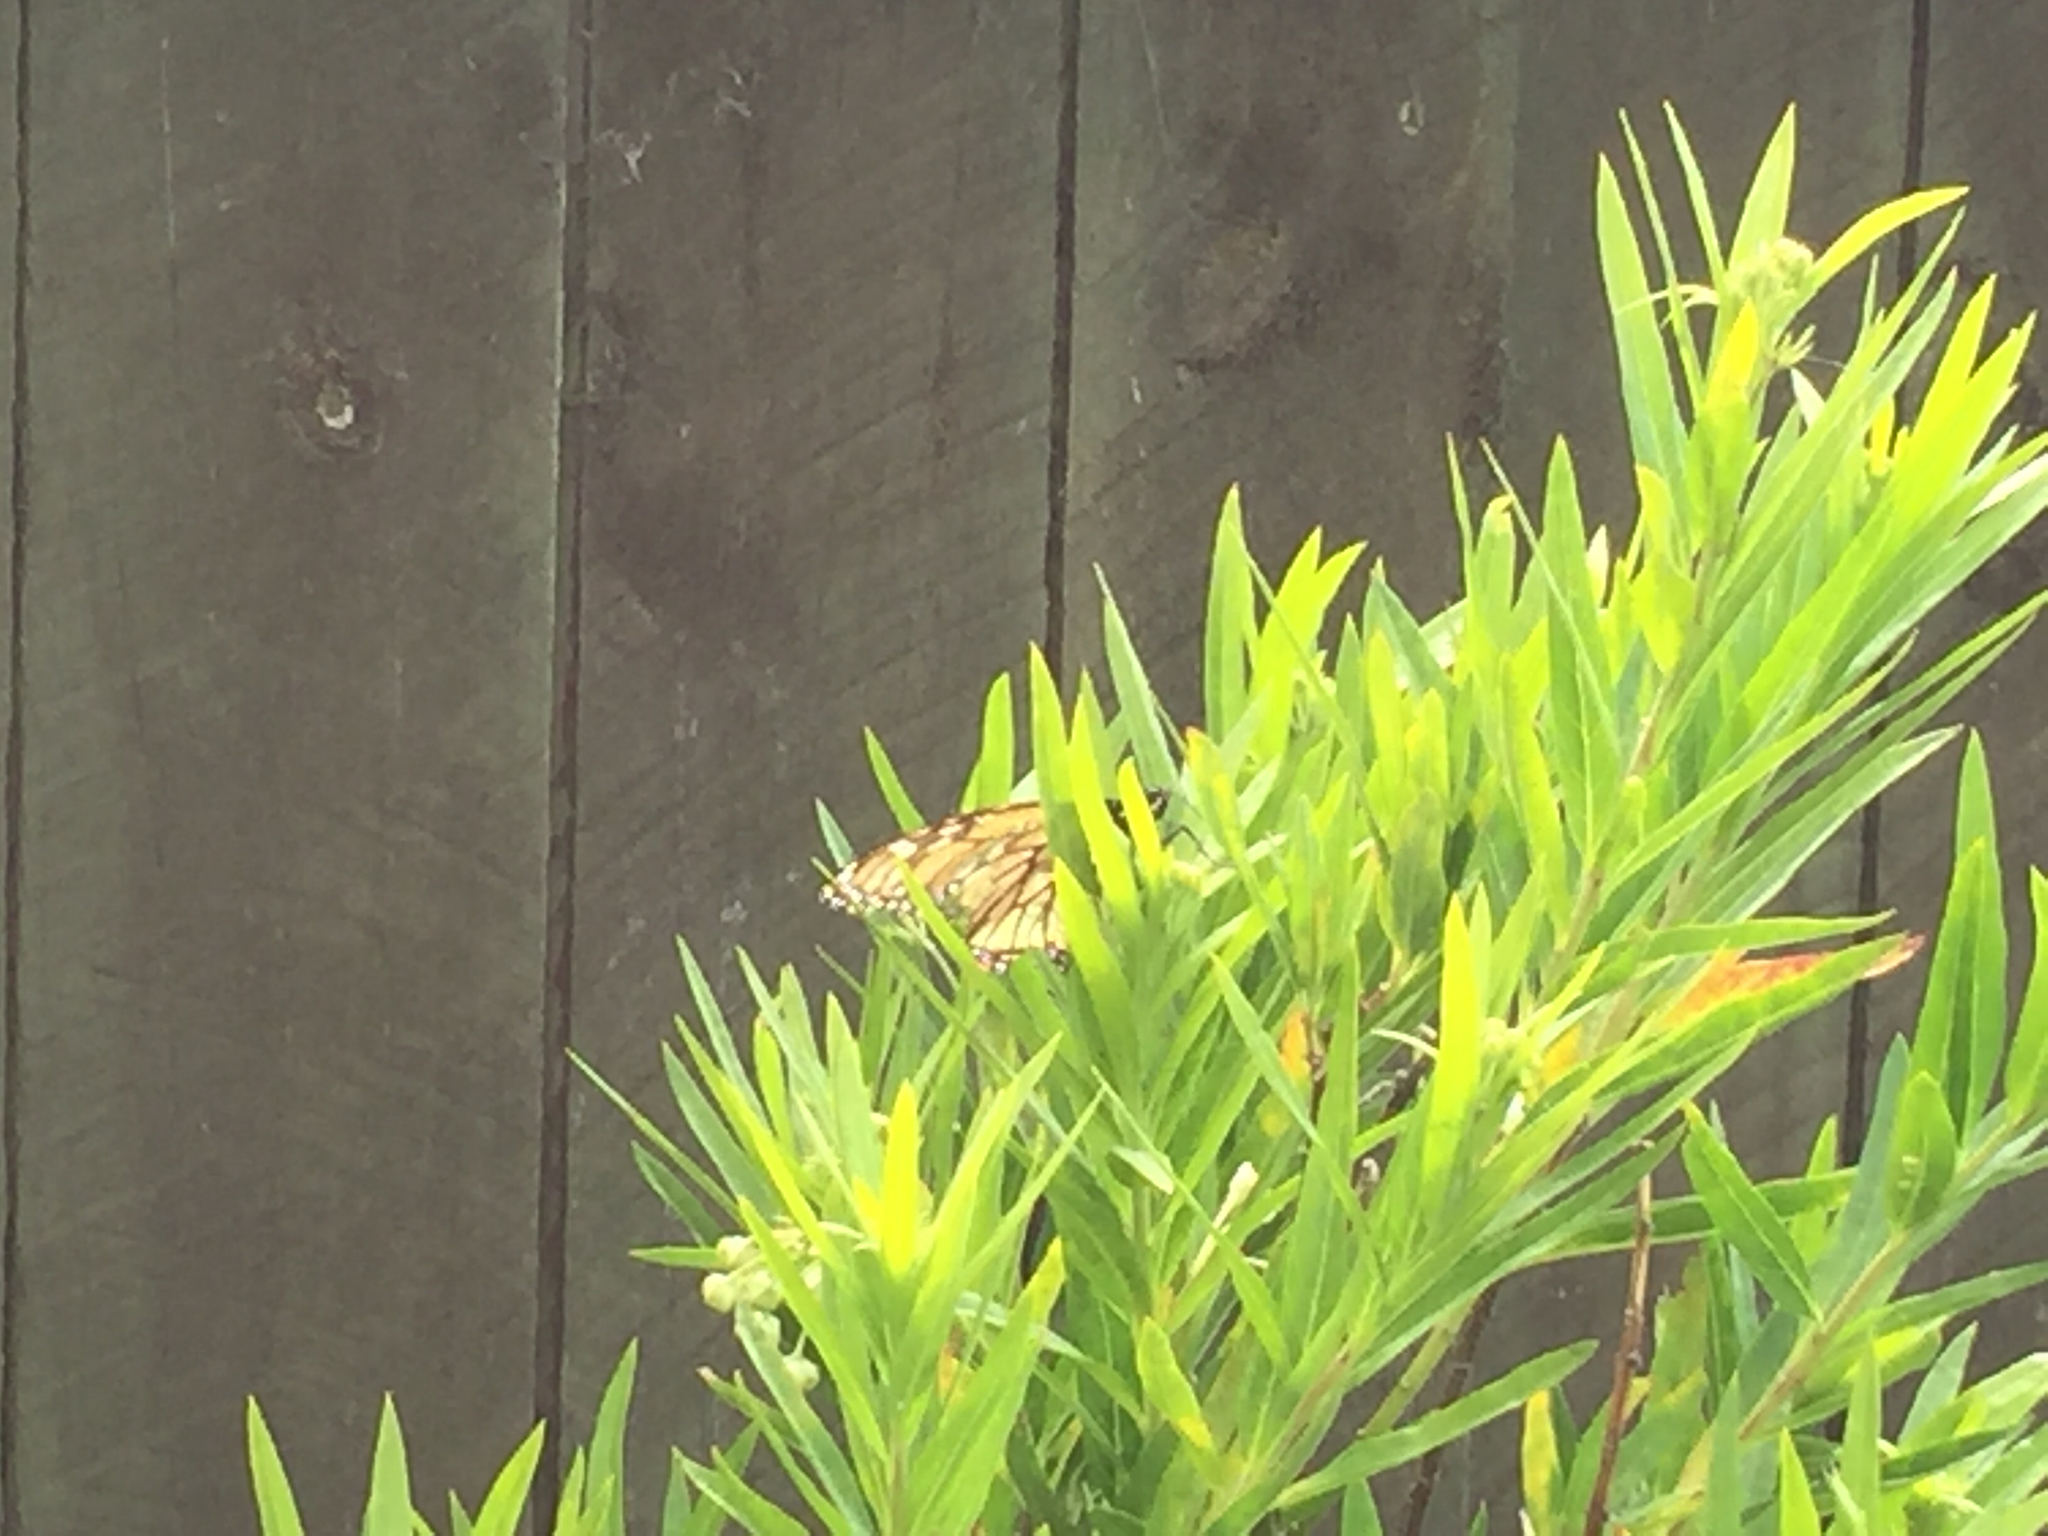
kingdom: Animalia
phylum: Arthropoda
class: Insecta
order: Lepidoptera
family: Nymphalidae
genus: Danaus
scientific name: Danaus plexippus
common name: Monarch
